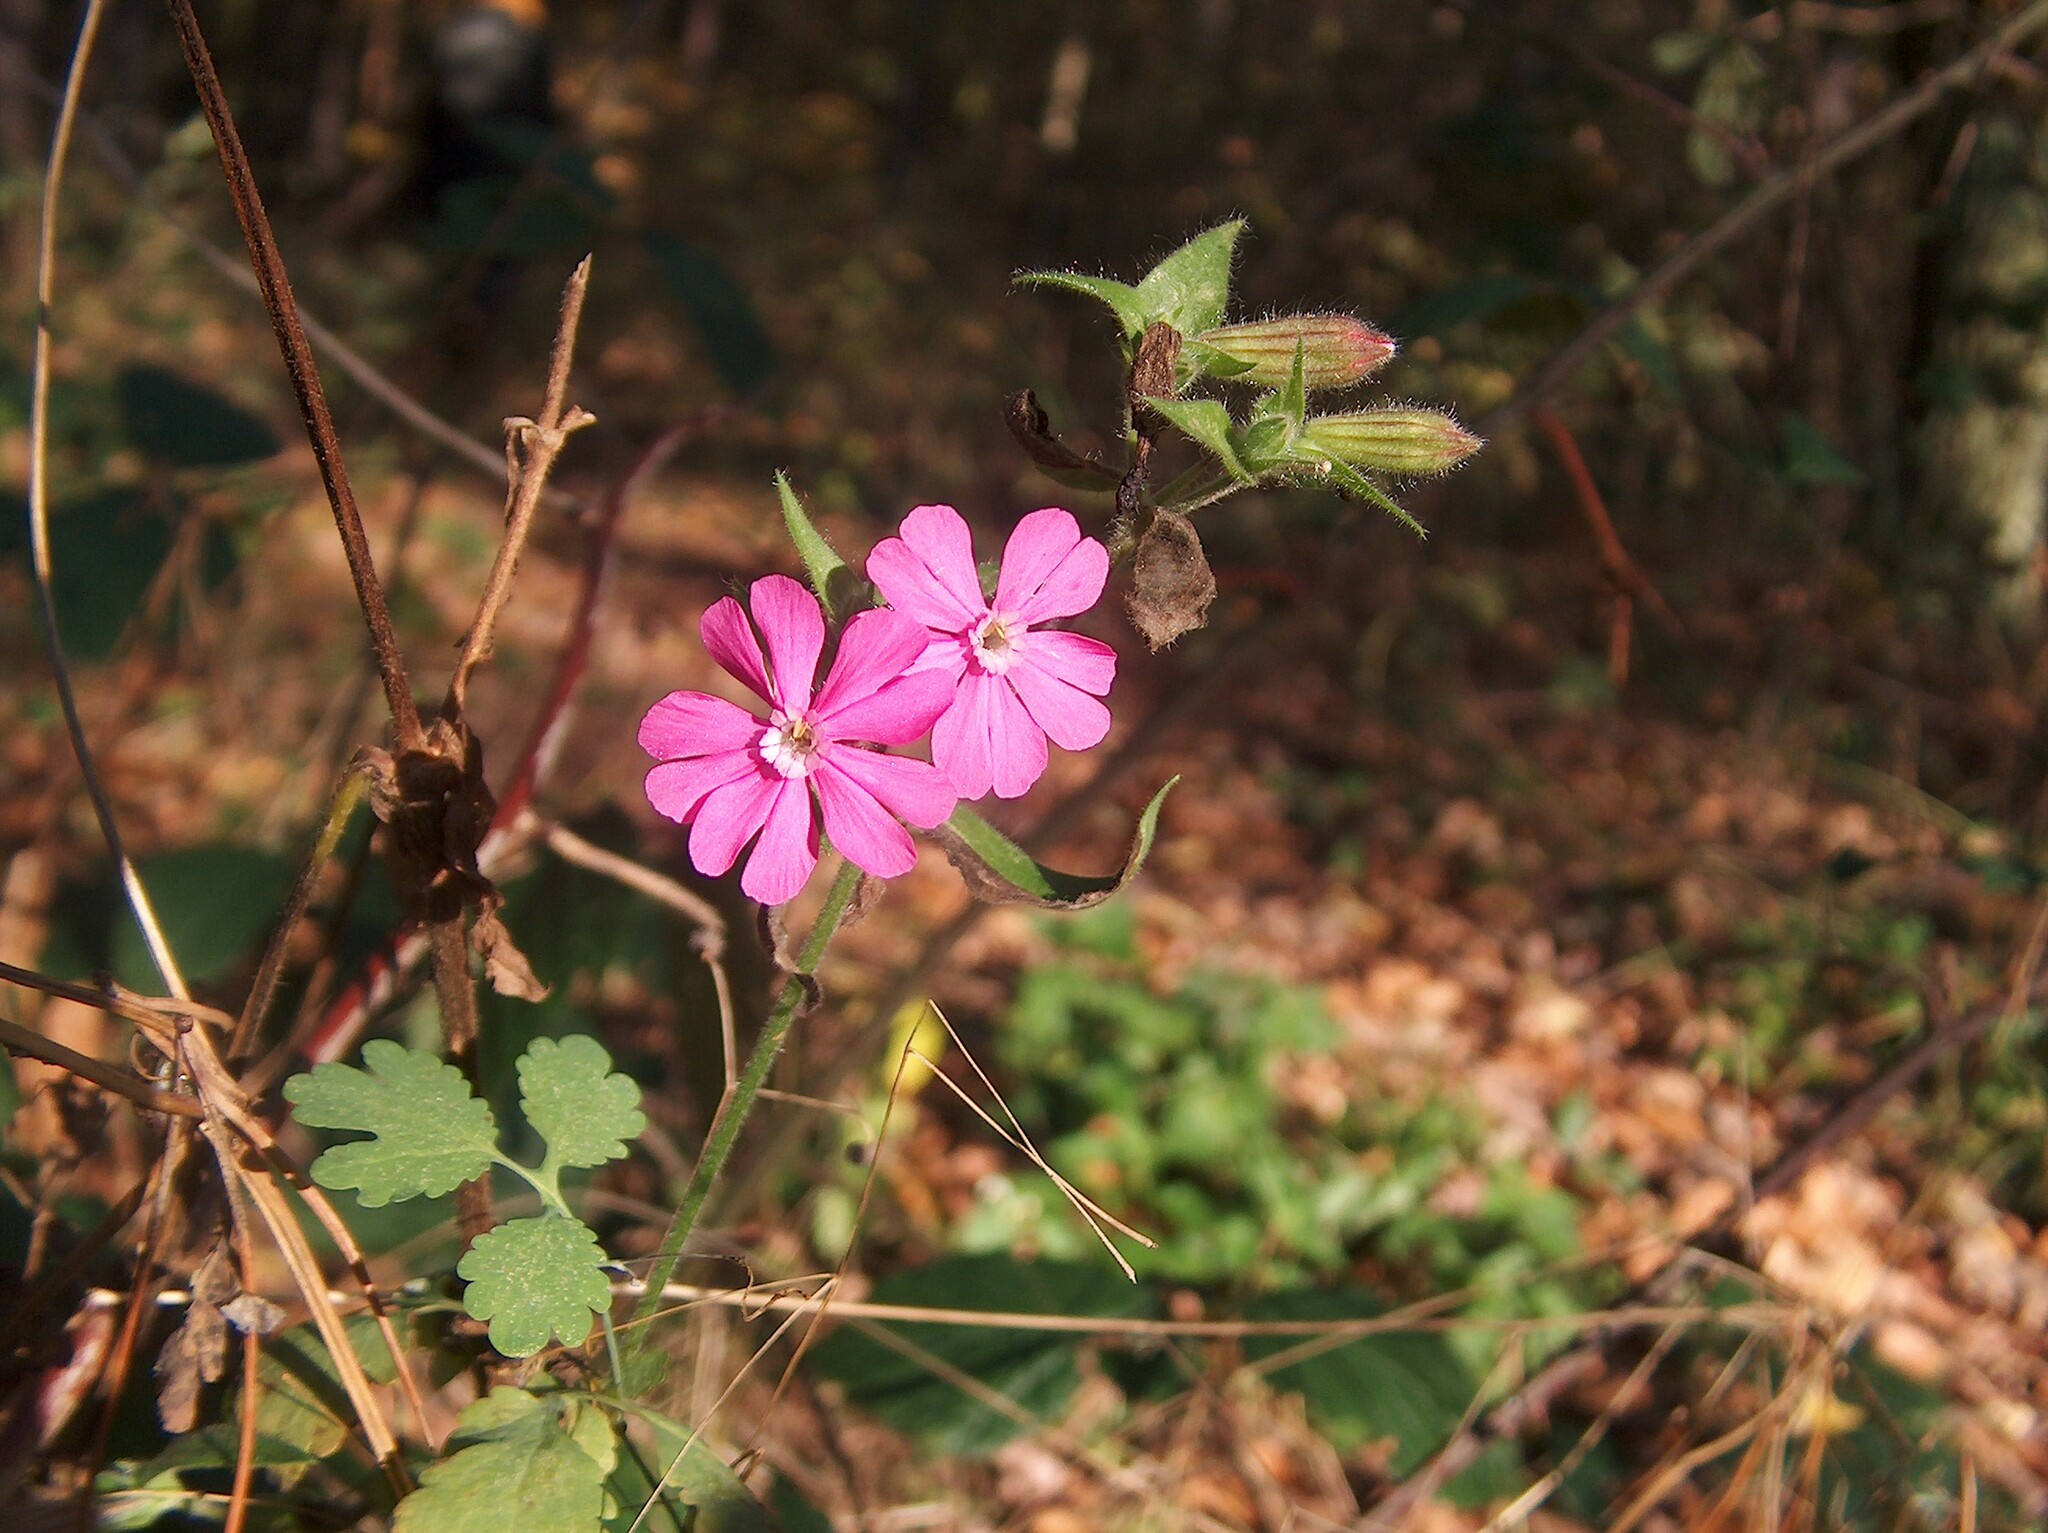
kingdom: Plantae
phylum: Tracheophyta
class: Magnoliopsida
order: Caryophyllales
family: Caryophyllaceae
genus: Silene
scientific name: Silene dioica
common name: Red campion
